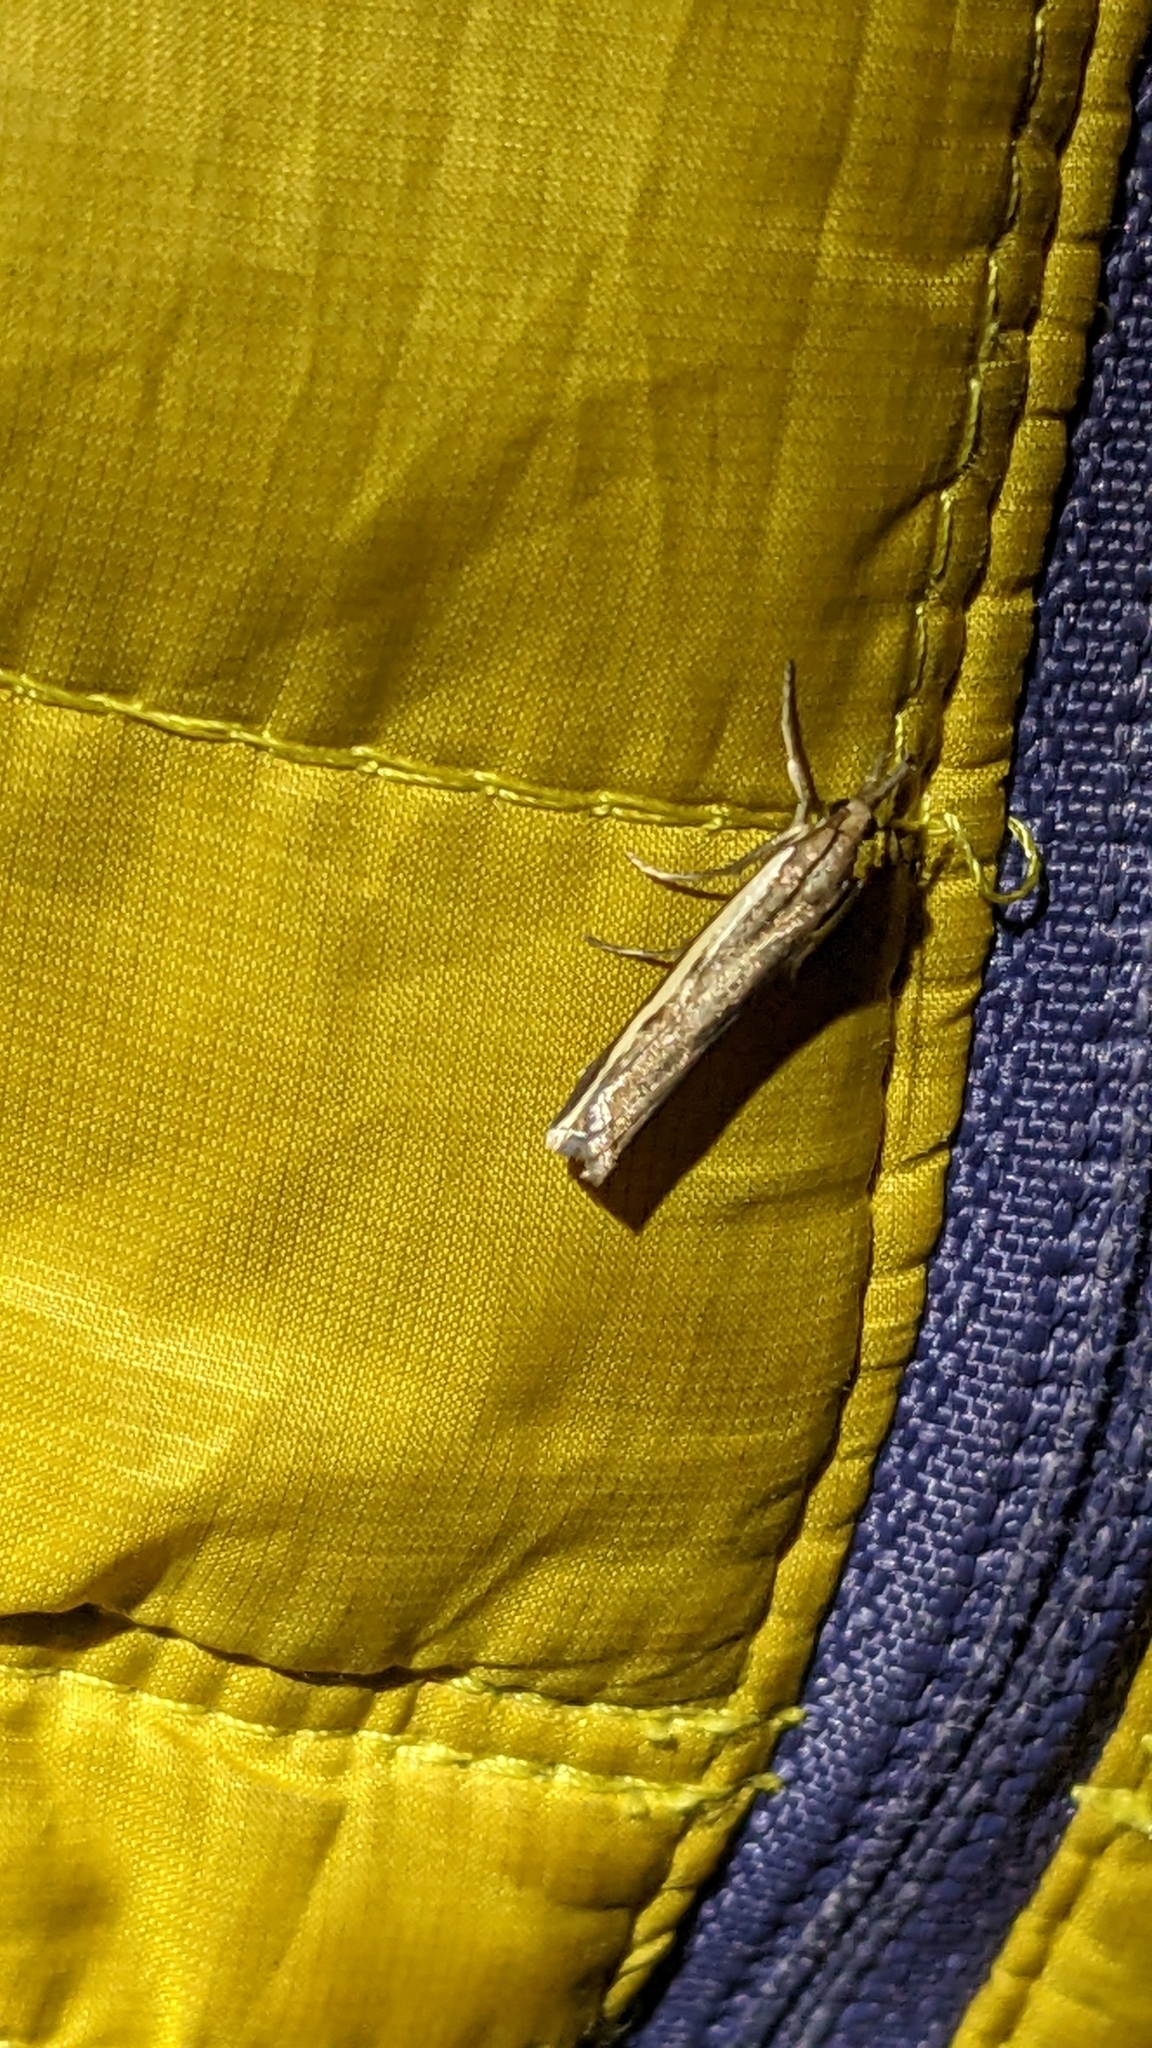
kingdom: Animalia
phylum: Arthropoda
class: Insecta
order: Lepidoptera
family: Crambidae
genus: Orocrambus
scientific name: Orocrambus flexuosellus
